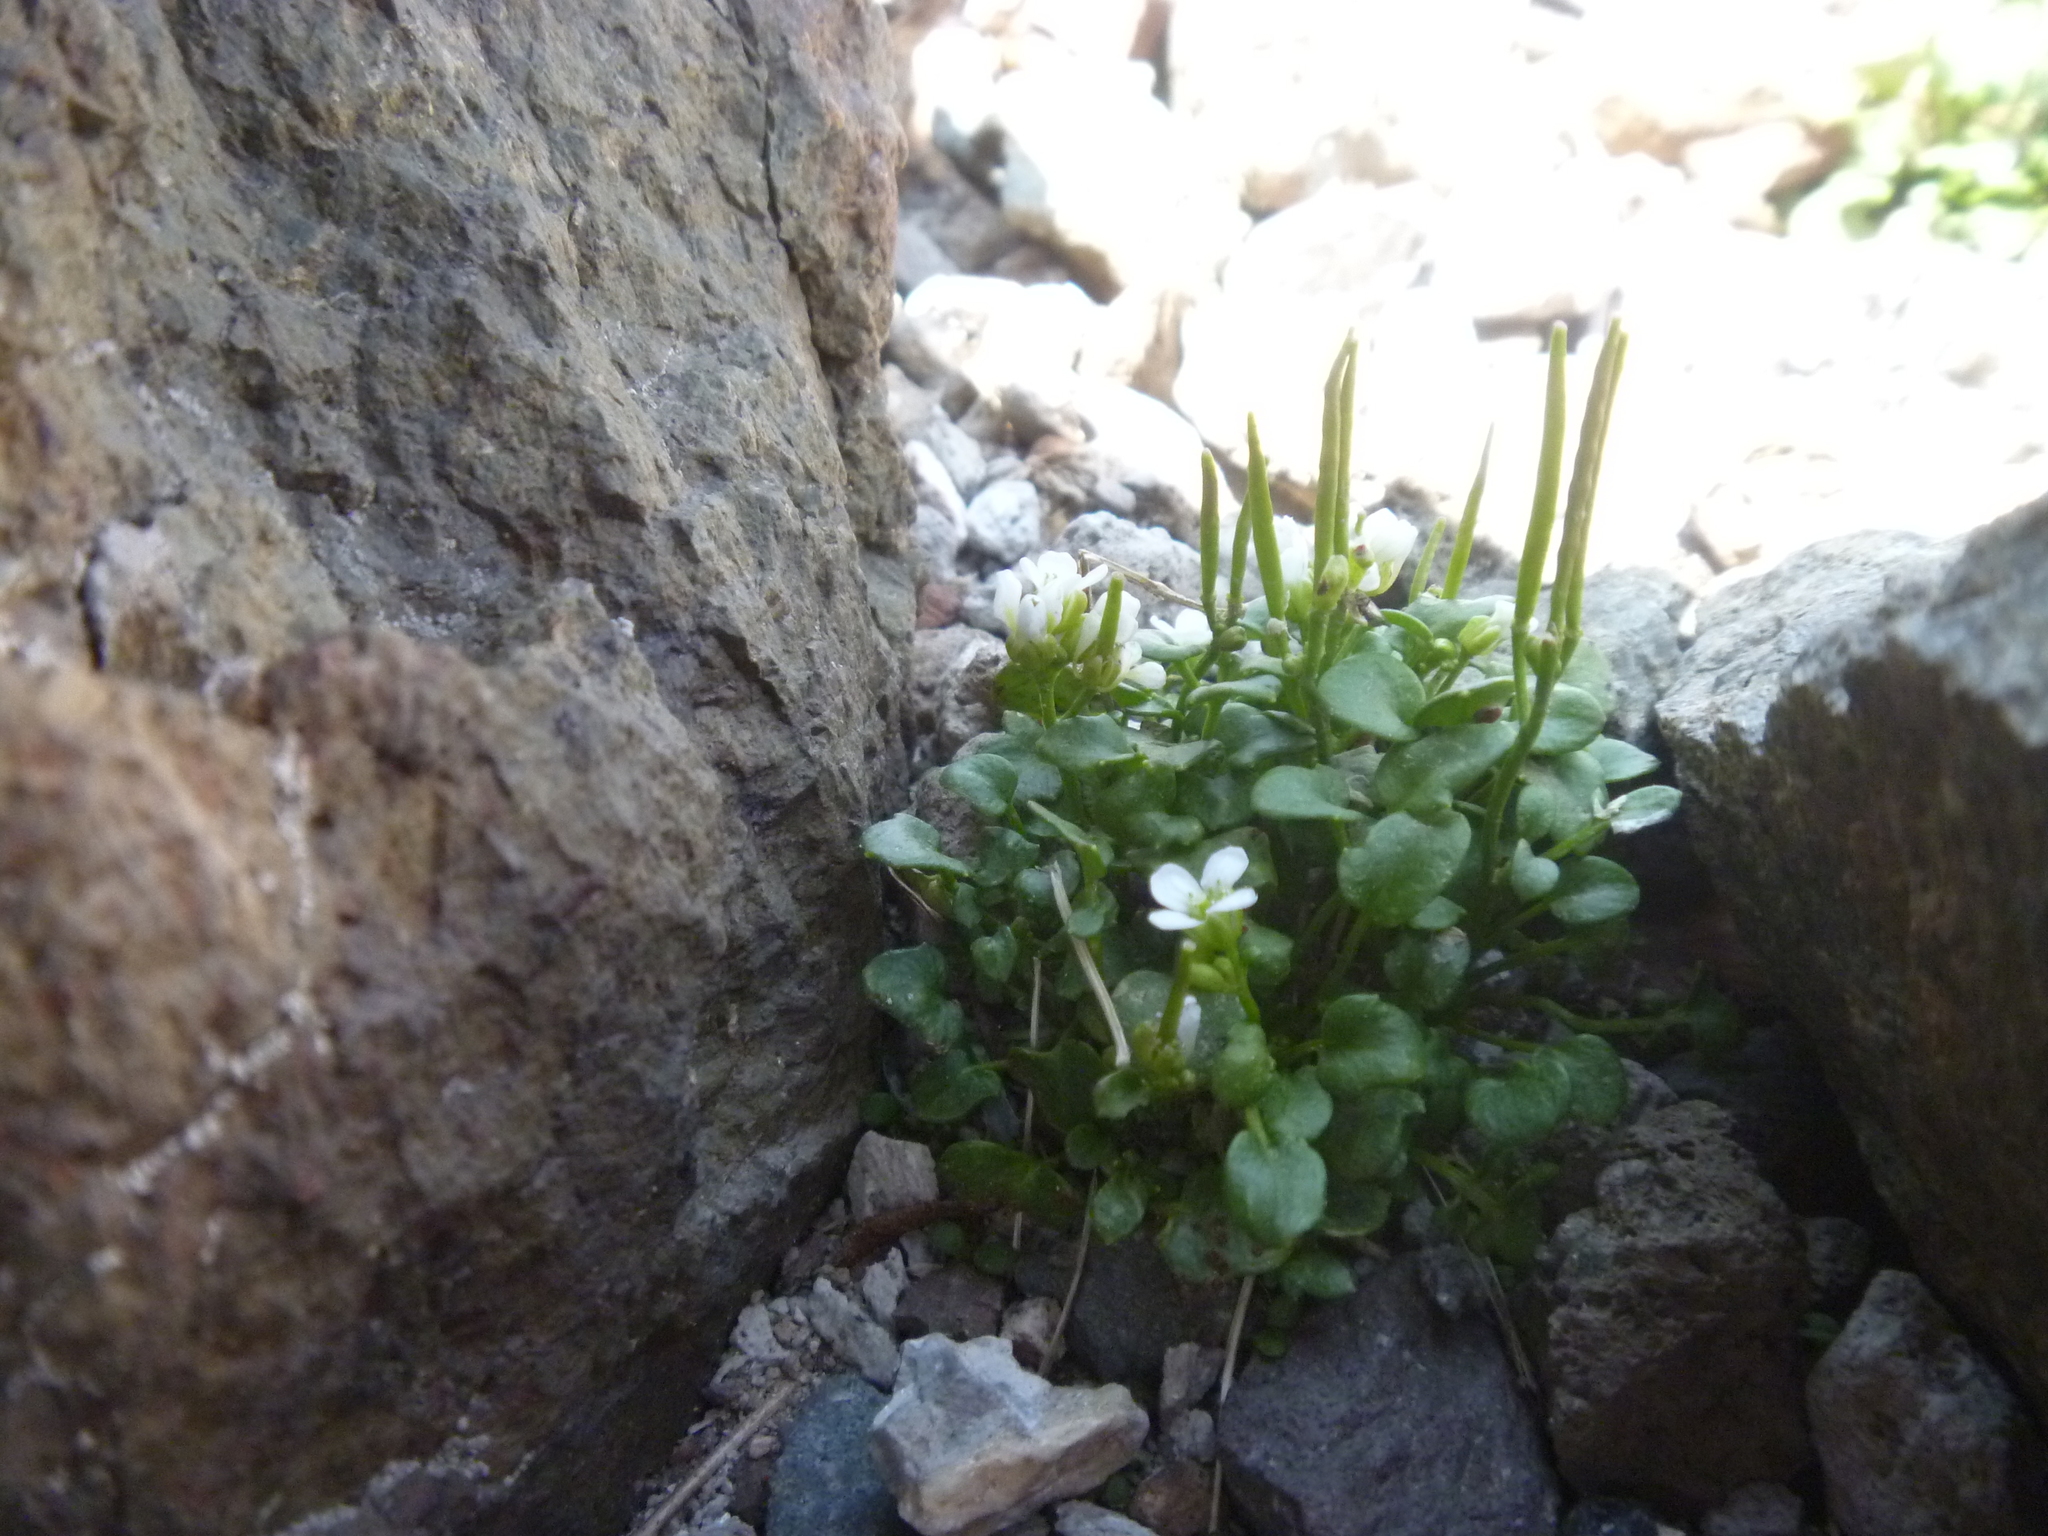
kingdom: Plantae
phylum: Tracheophyta
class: Magnoliopsida
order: Brassicales
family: Brassicaceae
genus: Cardamine
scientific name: Cardamine changbaiana
